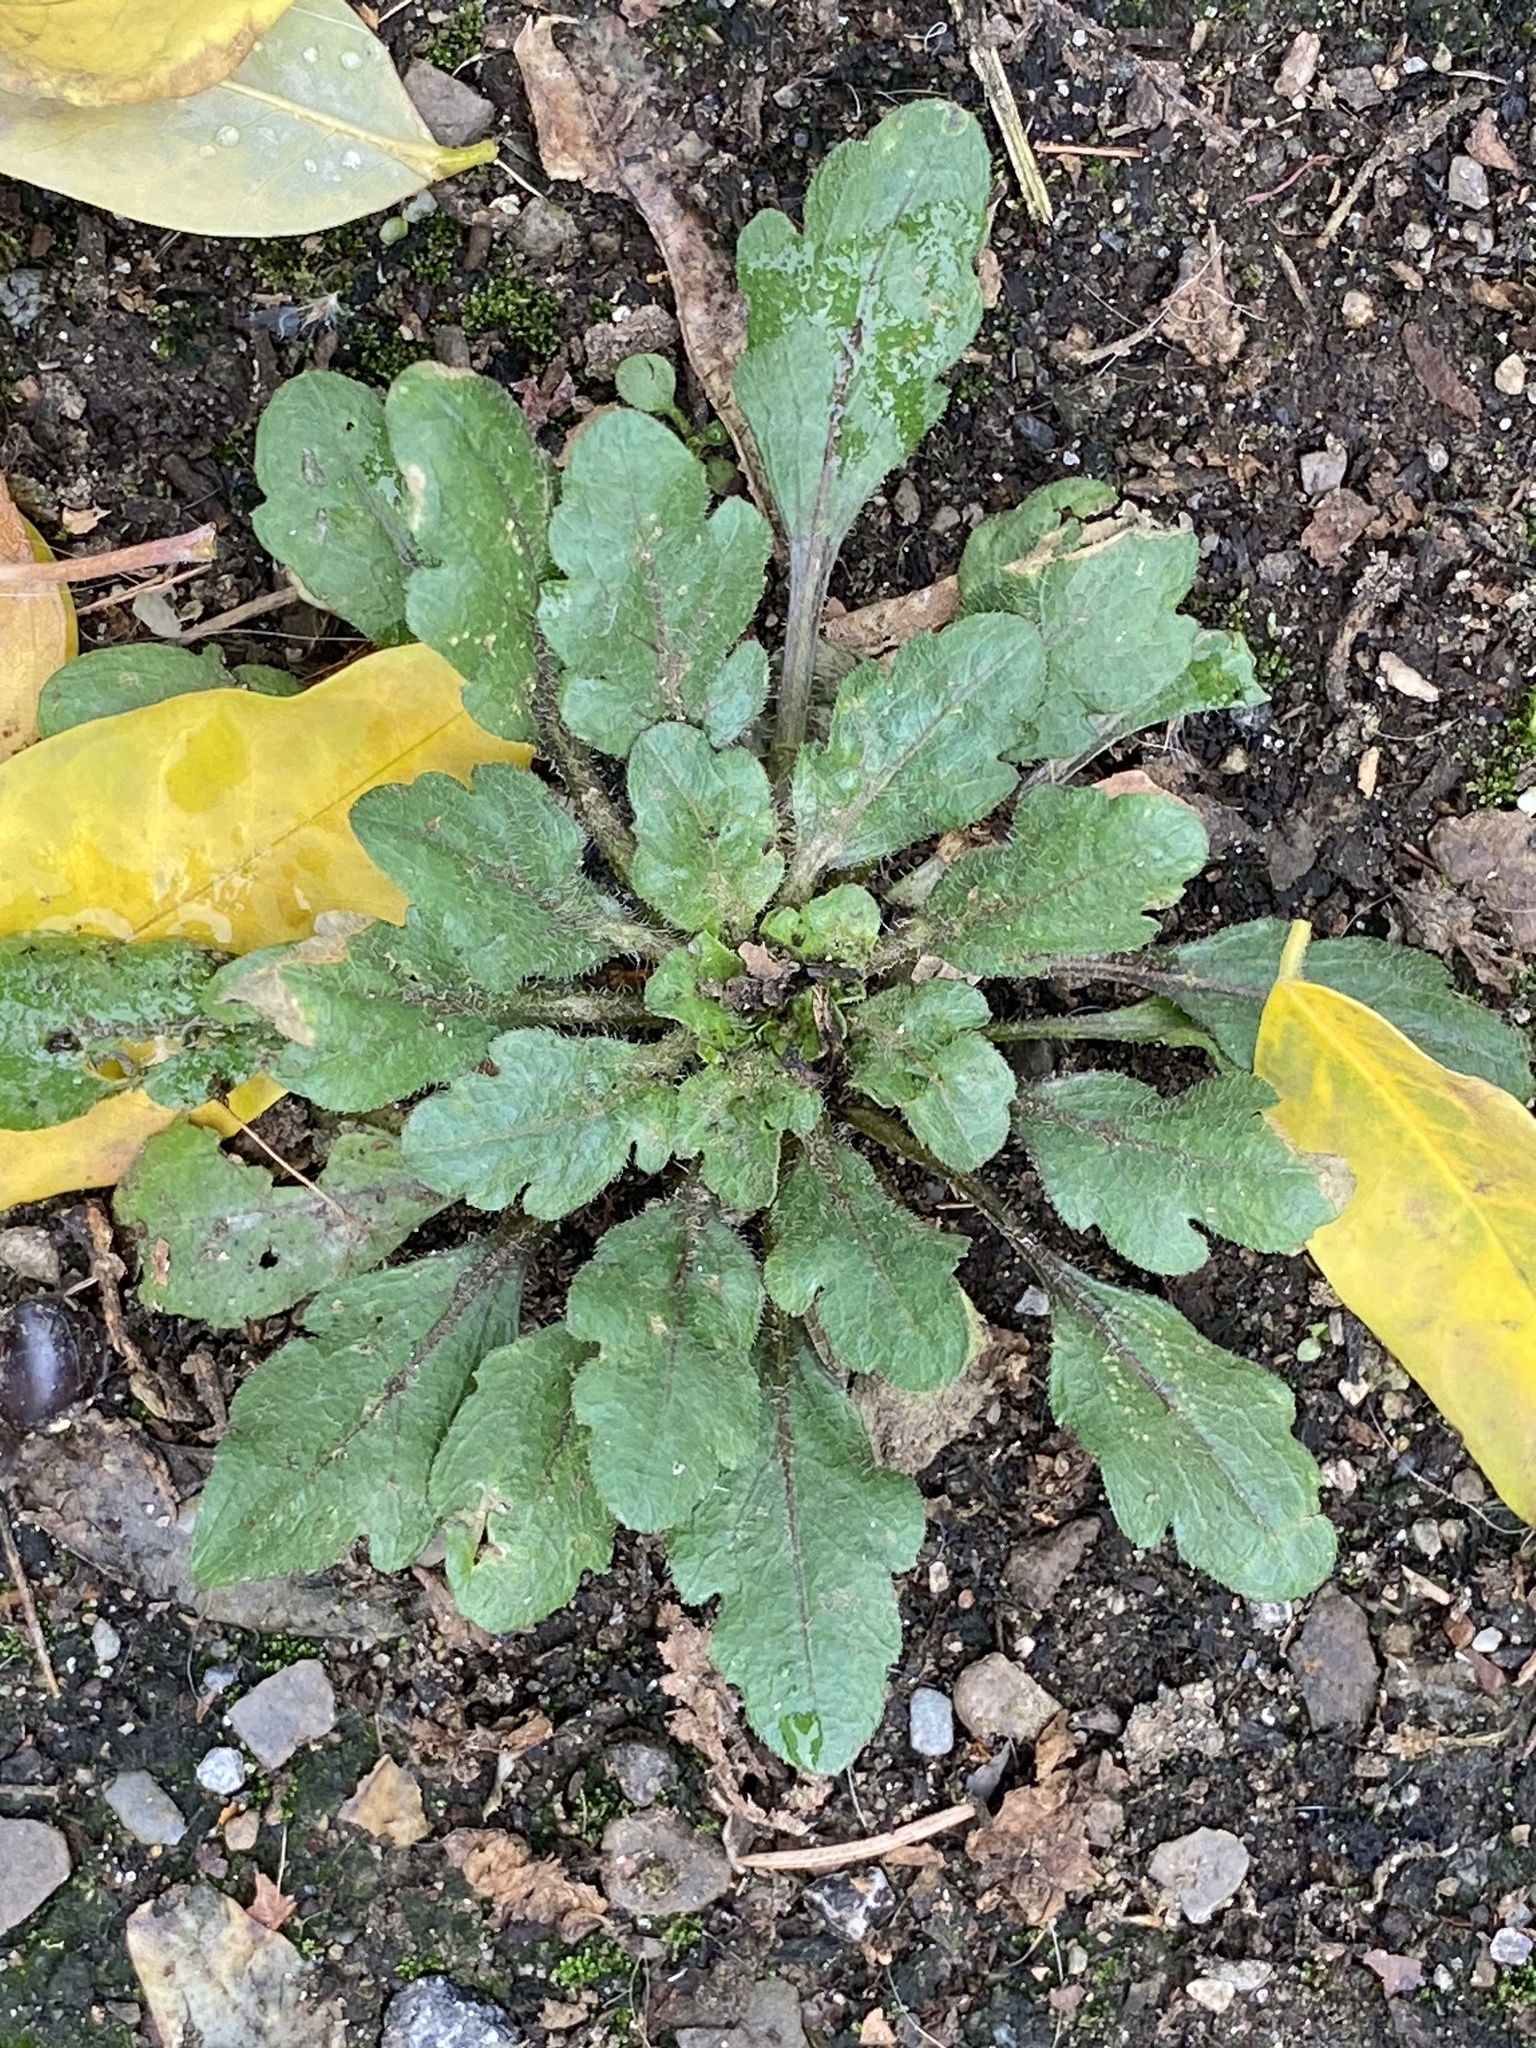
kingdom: Plantae
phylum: Tracheophyta
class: Magnoliopsida
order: Asterales
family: Asteraceae
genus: Erigeron
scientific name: Erigeron canadensis
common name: Canadian fleabane
